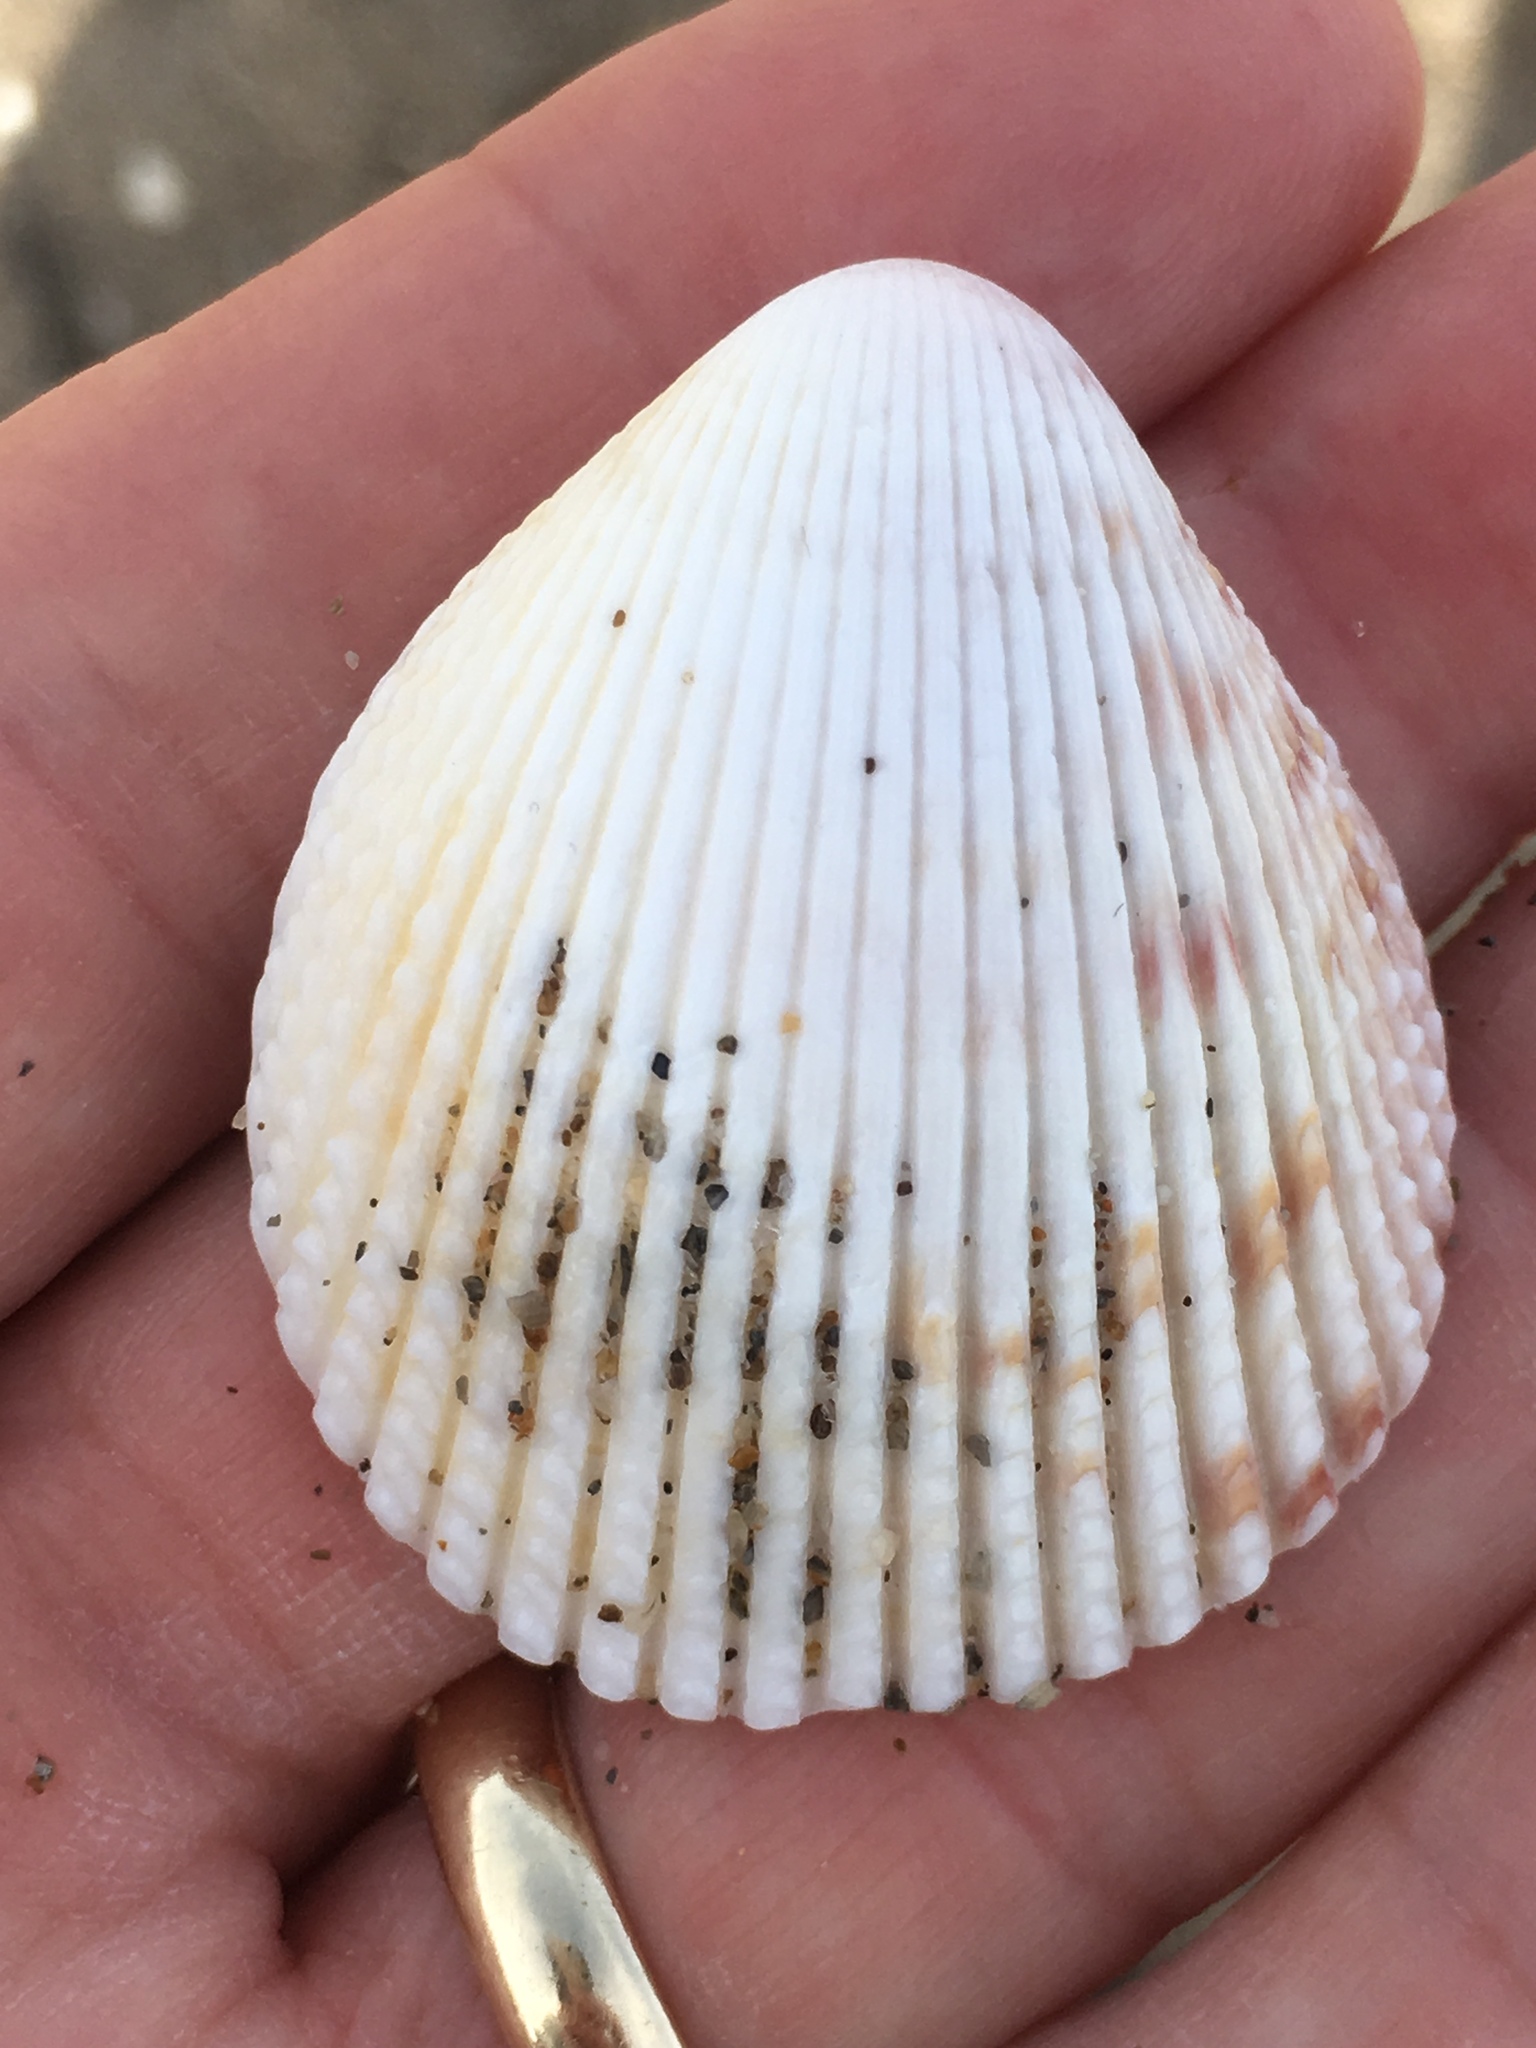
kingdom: Animalia
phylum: Mollusca
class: Bivalvia
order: Cardiida
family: Cardiidae
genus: Trachycardium
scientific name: Trachycardium egmontianum
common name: Florida pricklycockle
